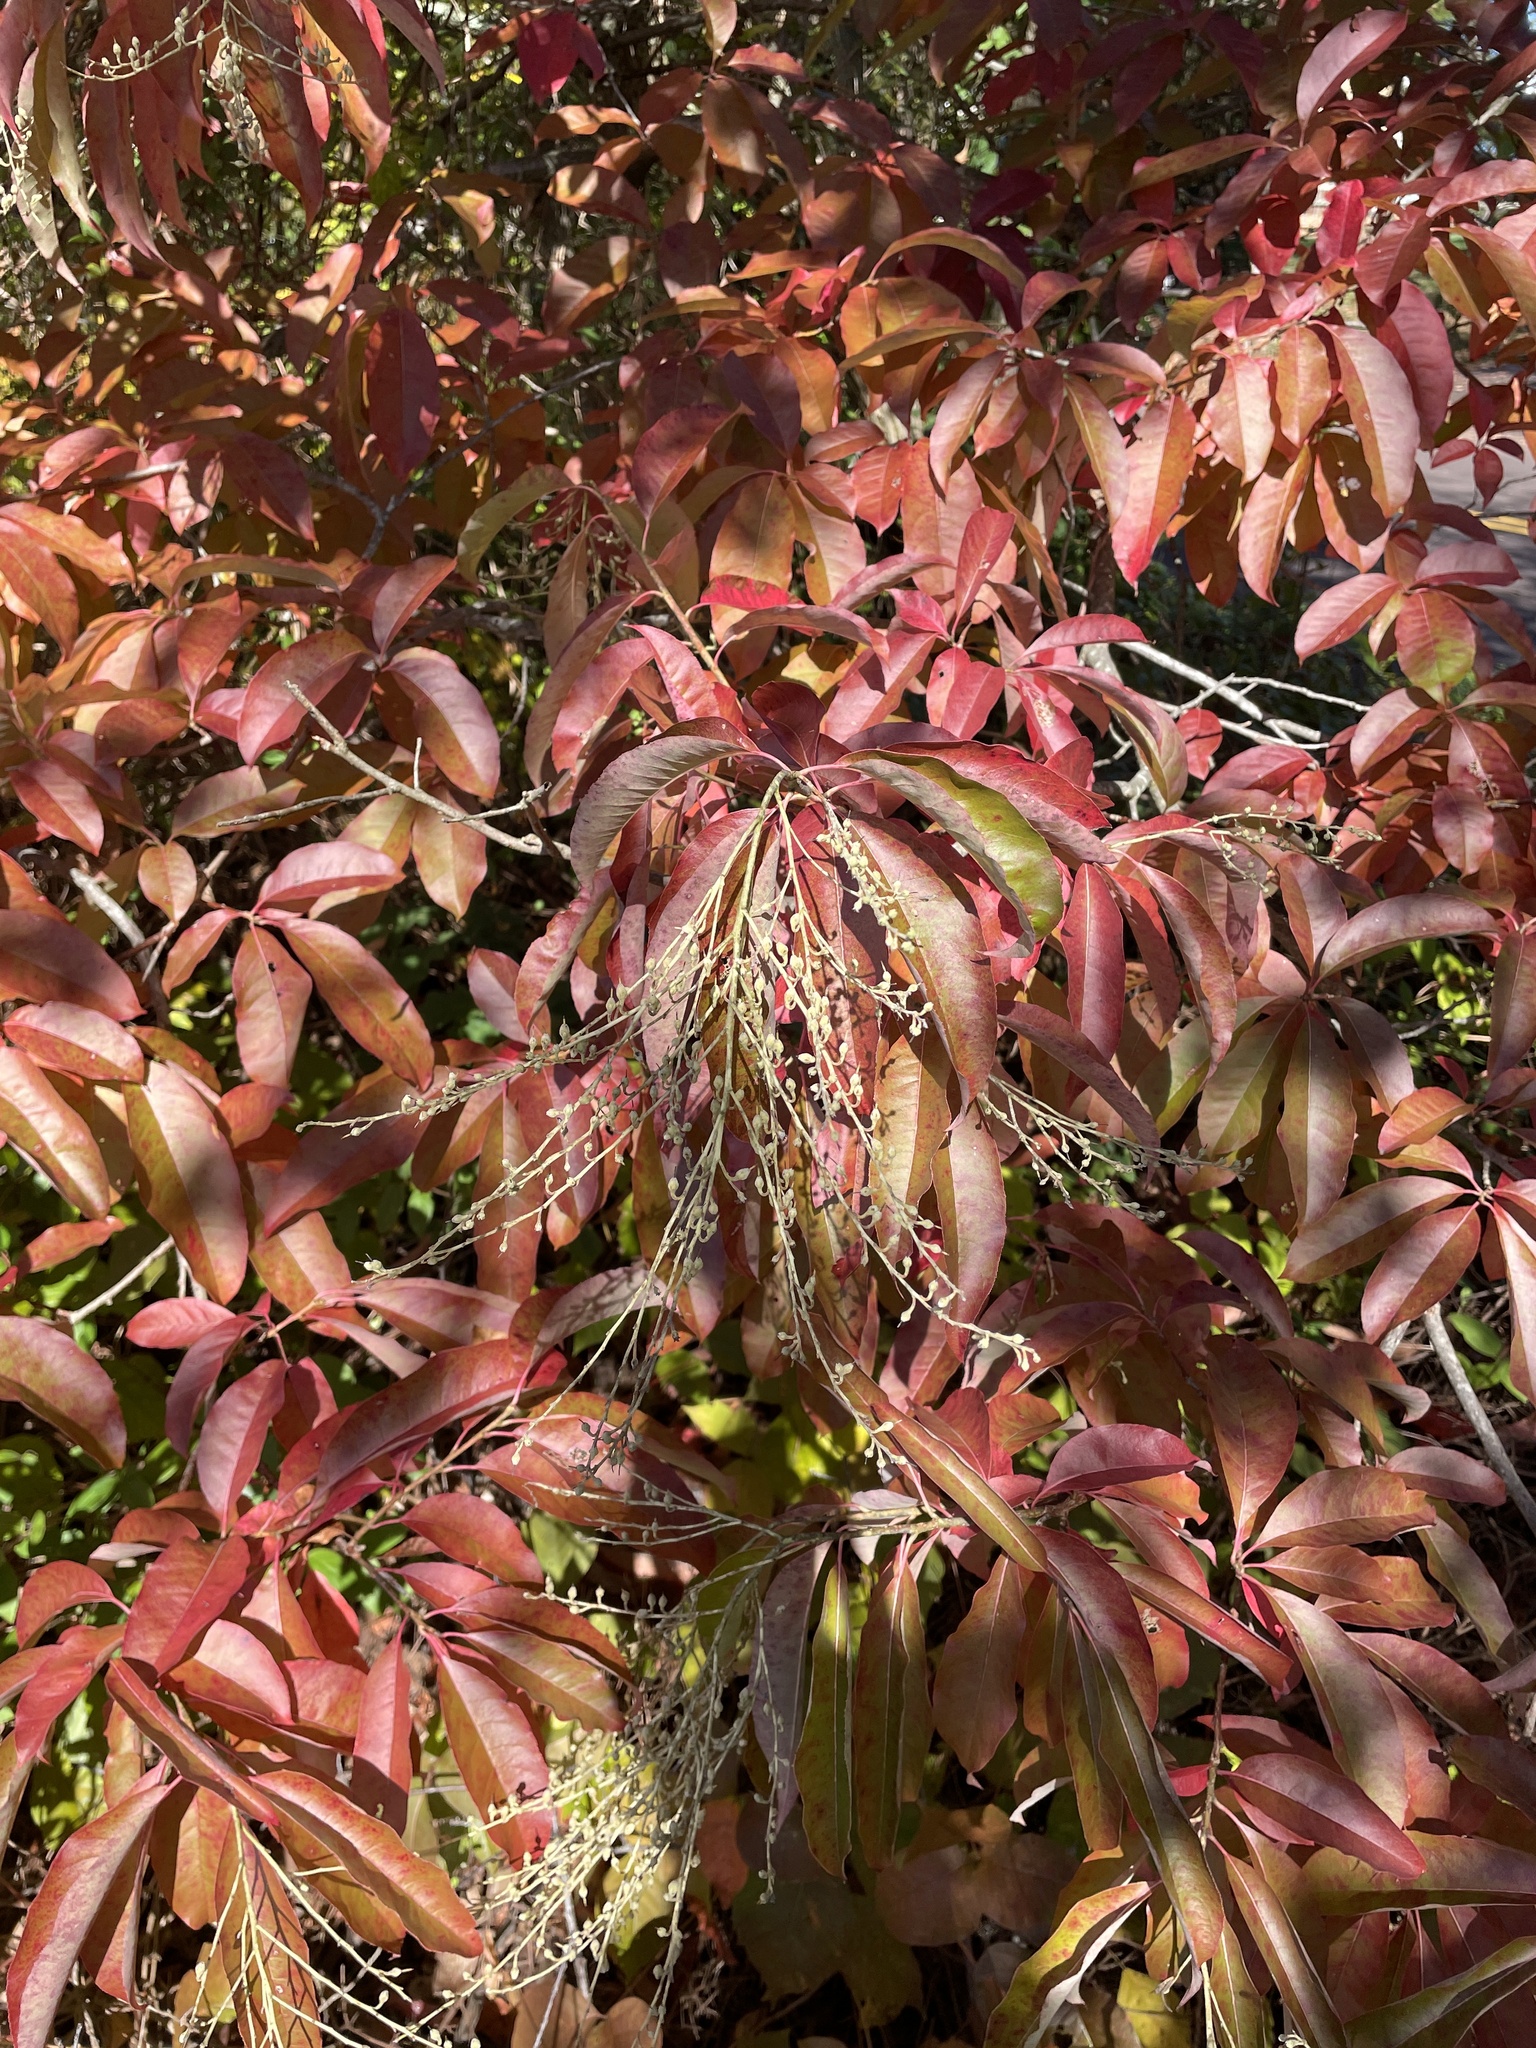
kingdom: Plantae
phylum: Tracheophyta
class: Magnoliopsida
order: Ericales
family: Ericaceae
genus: Oxydendrum
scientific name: Oxydendrum arboreum
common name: Sourwood
